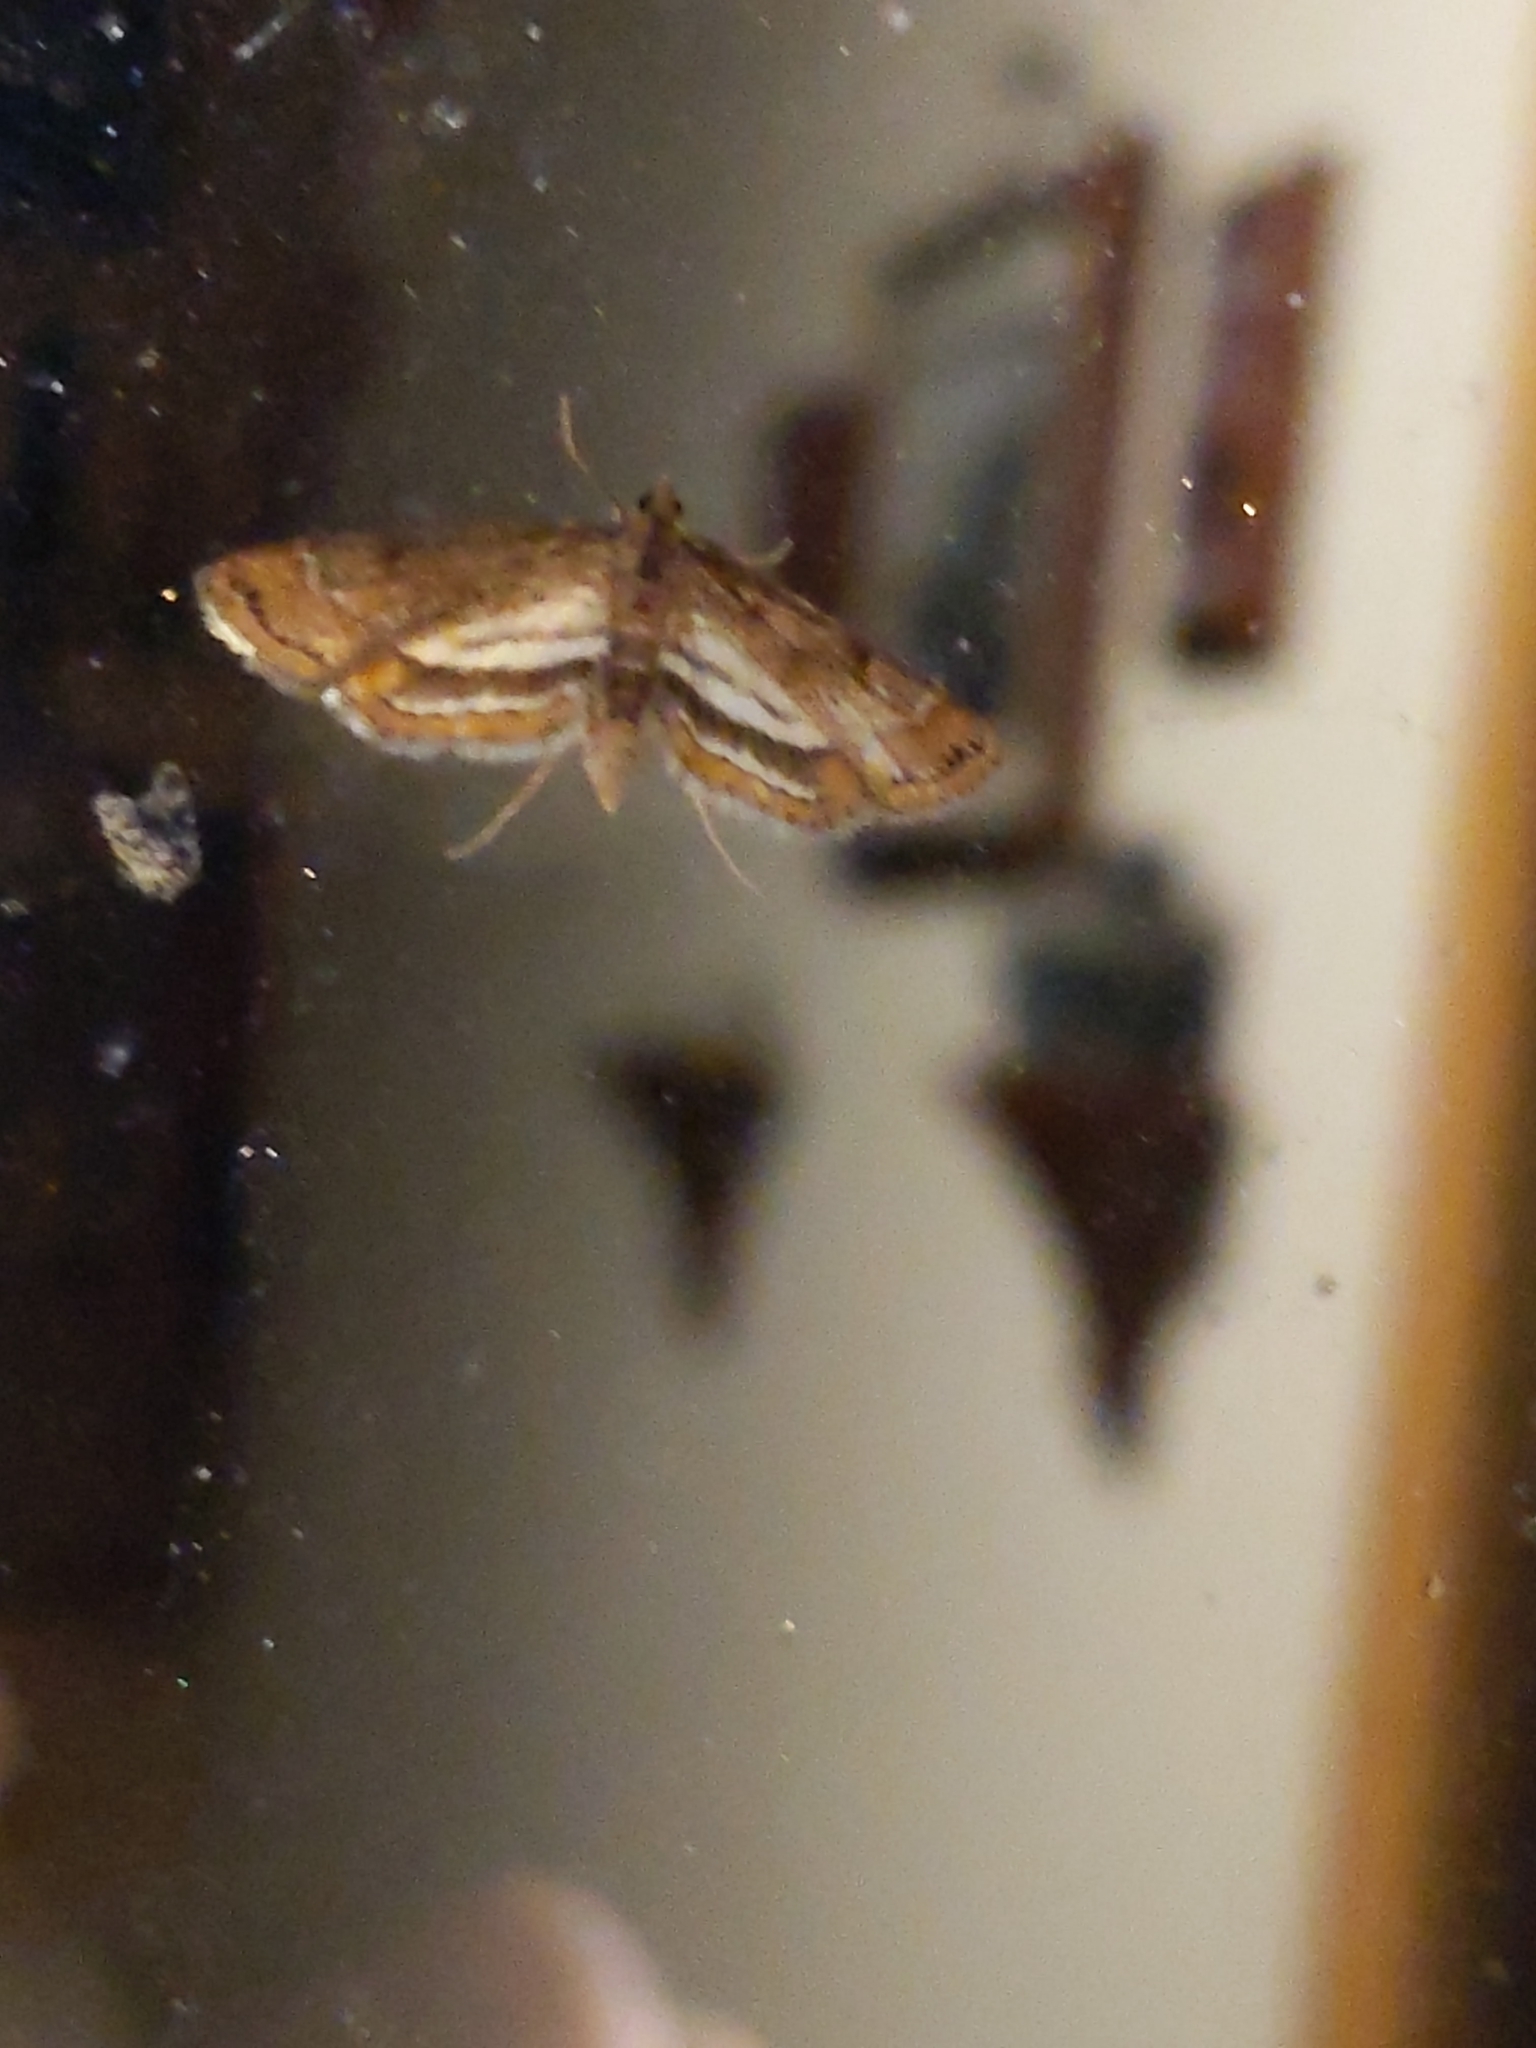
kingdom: Animalia
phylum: Arthropoda
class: Insecta
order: Lepidoptera
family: Crambidae
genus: Parapoynx
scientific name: Parapoynx obscuralis
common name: American china-mark
